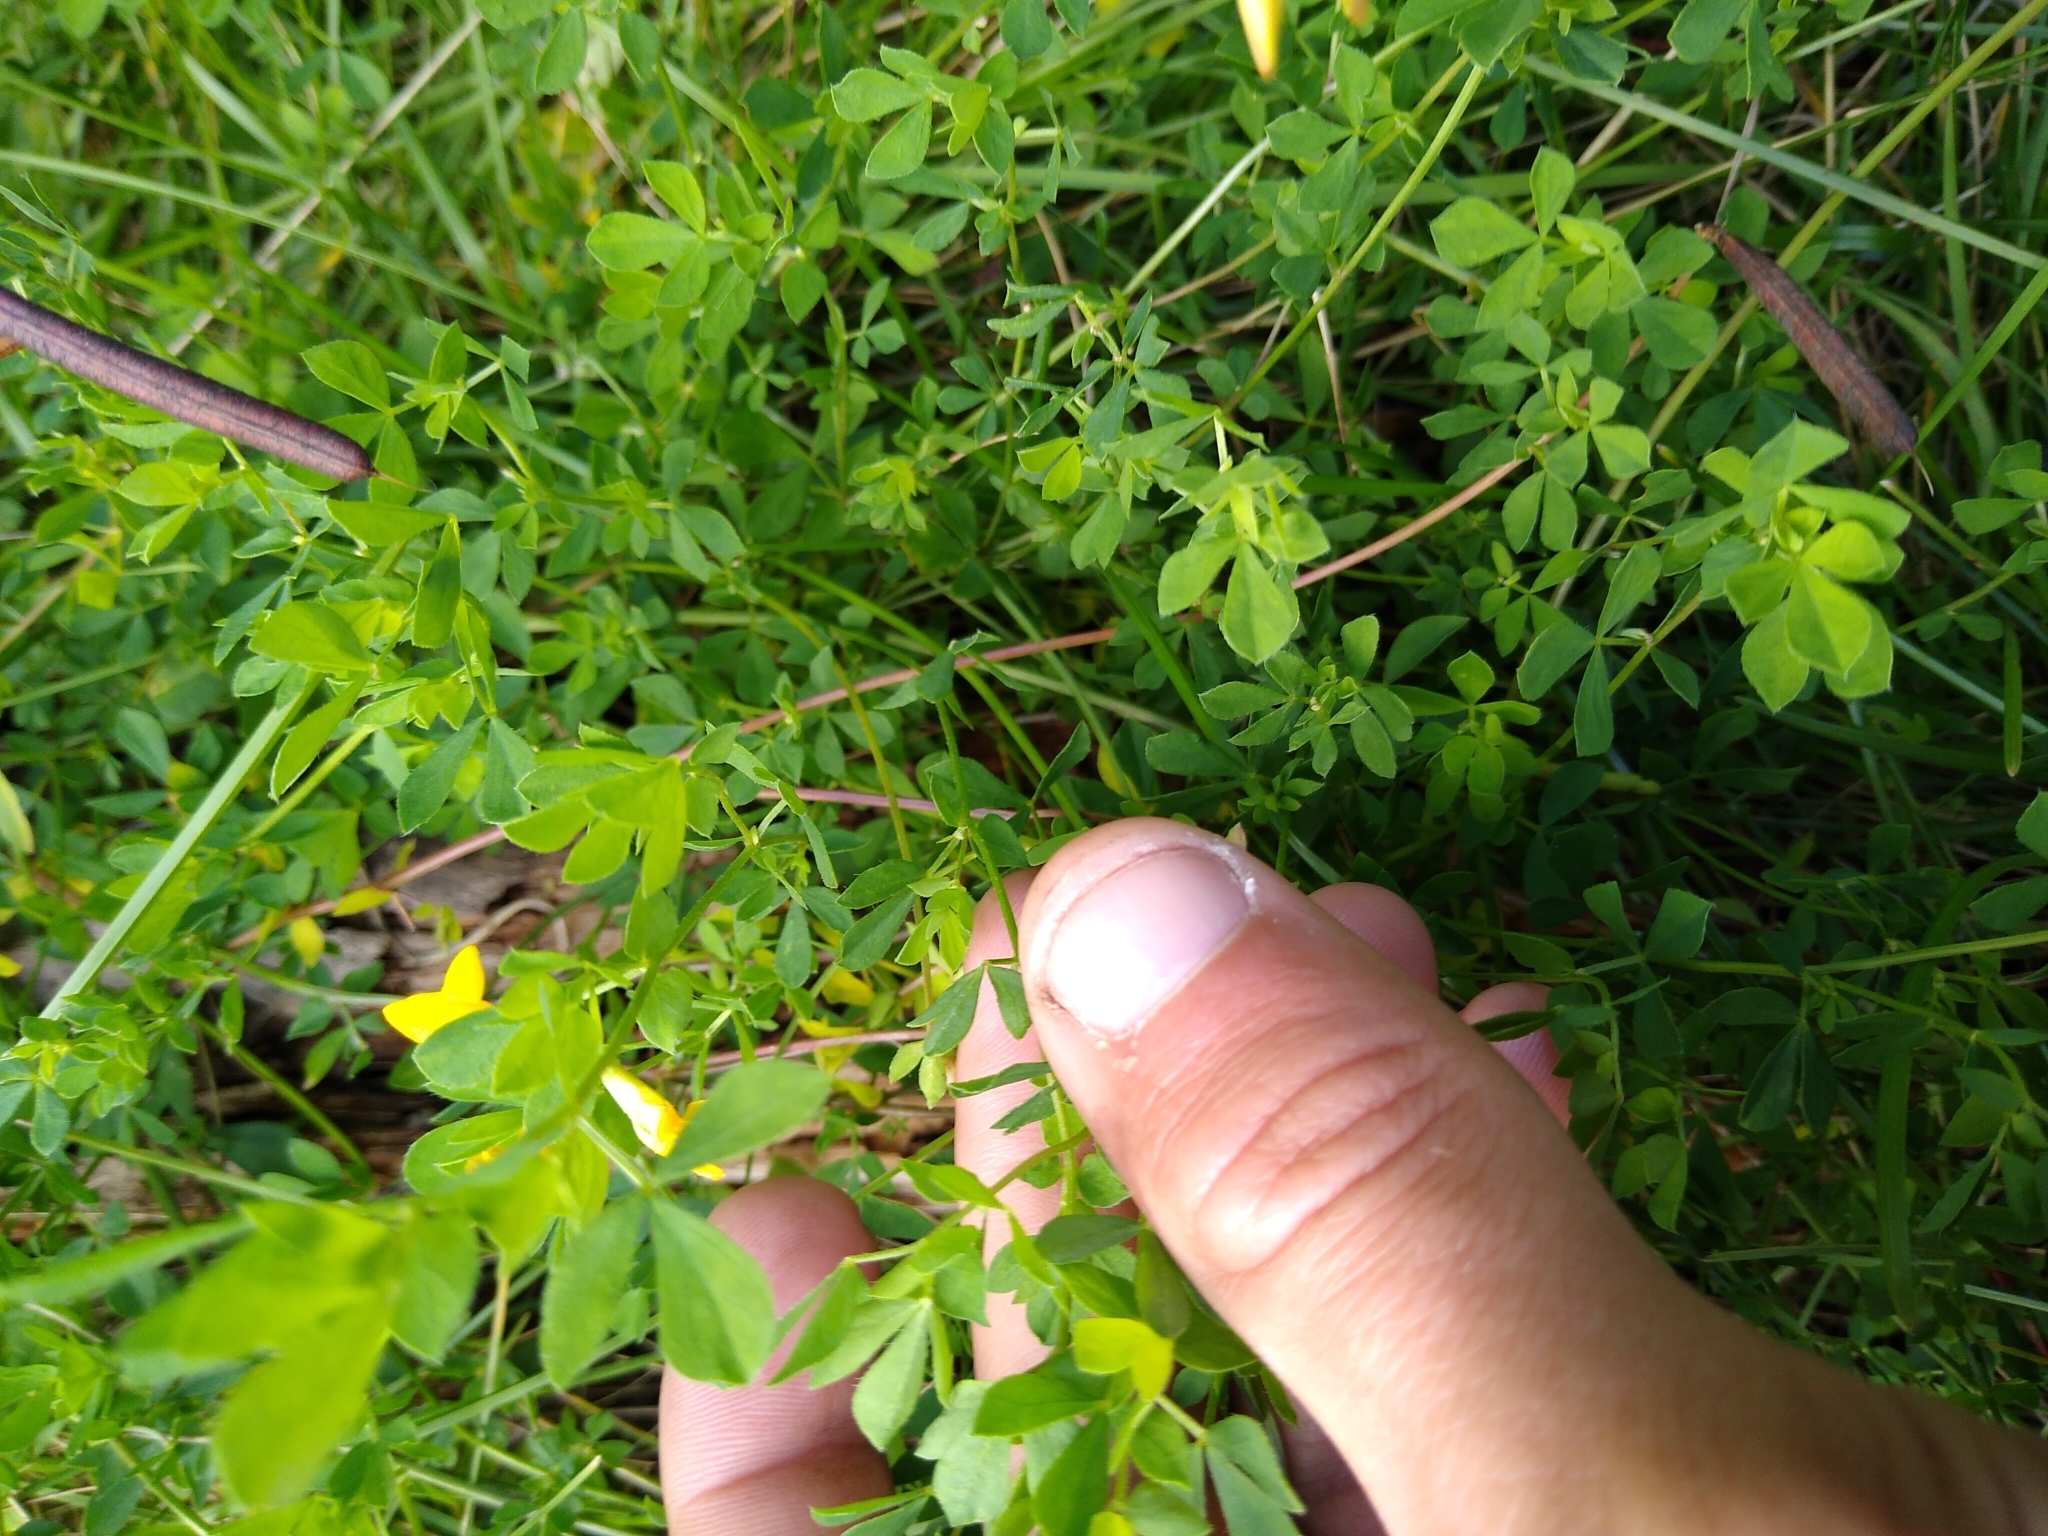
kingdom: Plantae
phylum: Tracheophyta
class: Magnoliopsida
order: Fabales
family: Fabaceae
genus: Lotus
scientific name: Lotus corniculatus
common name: Common bird's-foot-trefoil
